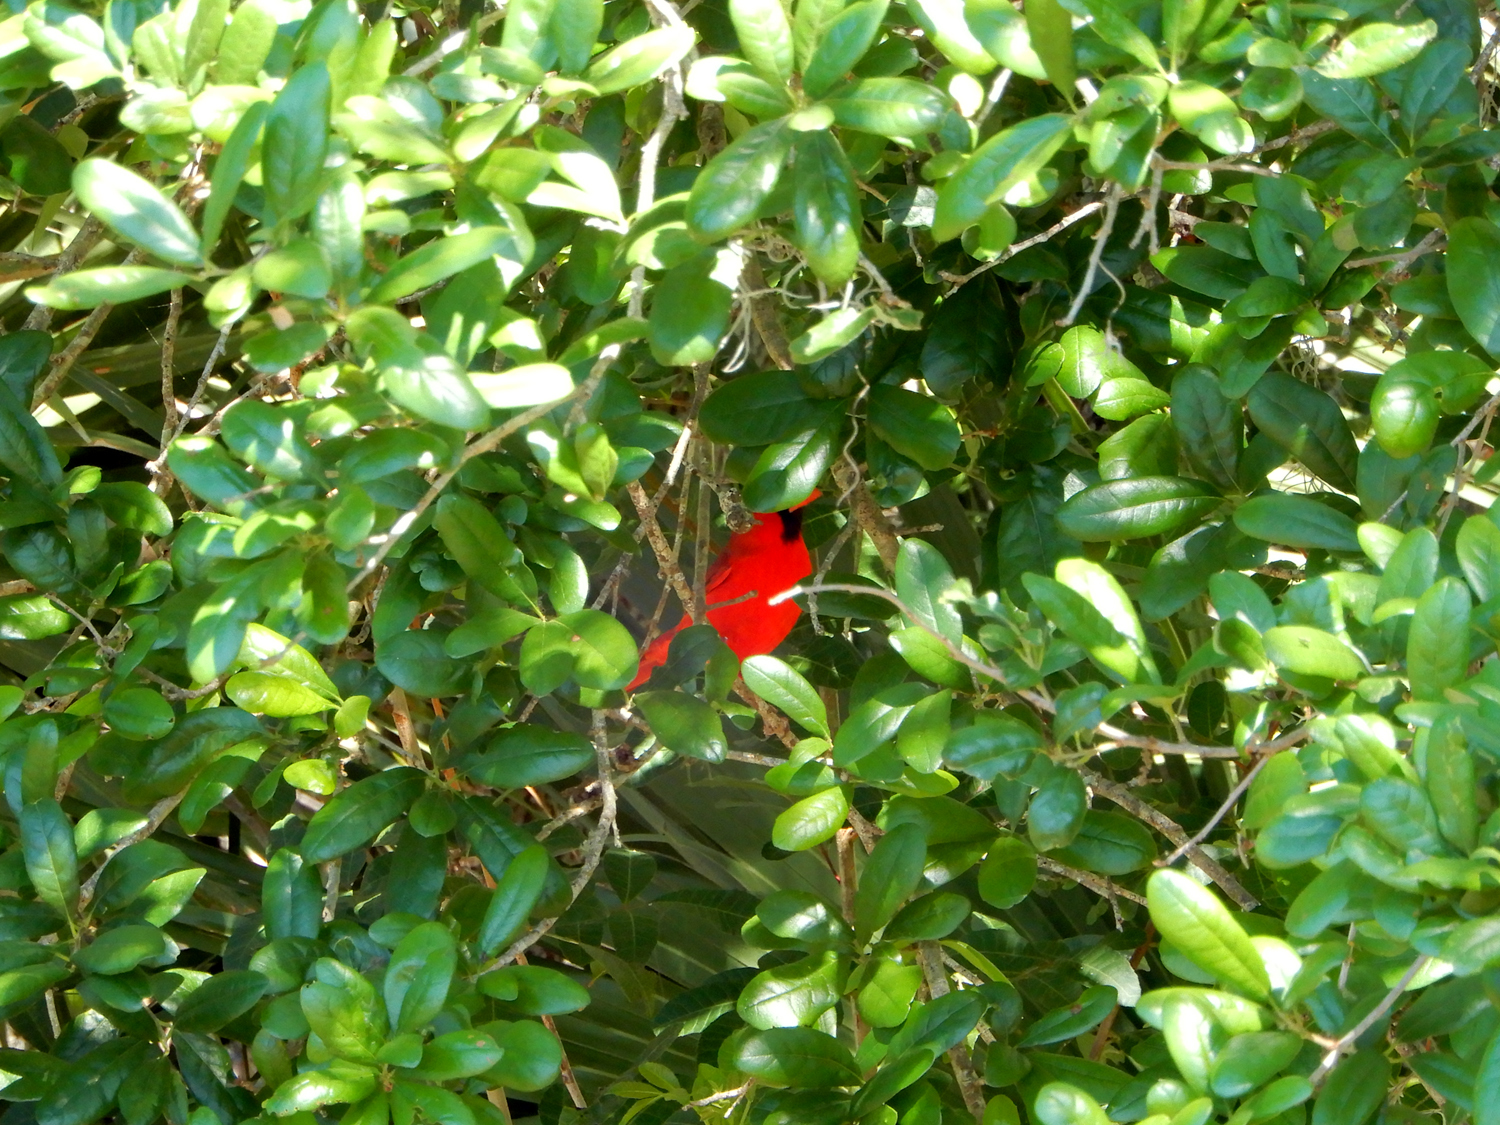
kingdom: Animalia
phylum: Chordata
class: Aves
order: Passeriformes
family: Cardinalidae
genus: Cardinalis
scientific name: Cardinalis cardinalis
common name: Northern cardinal
